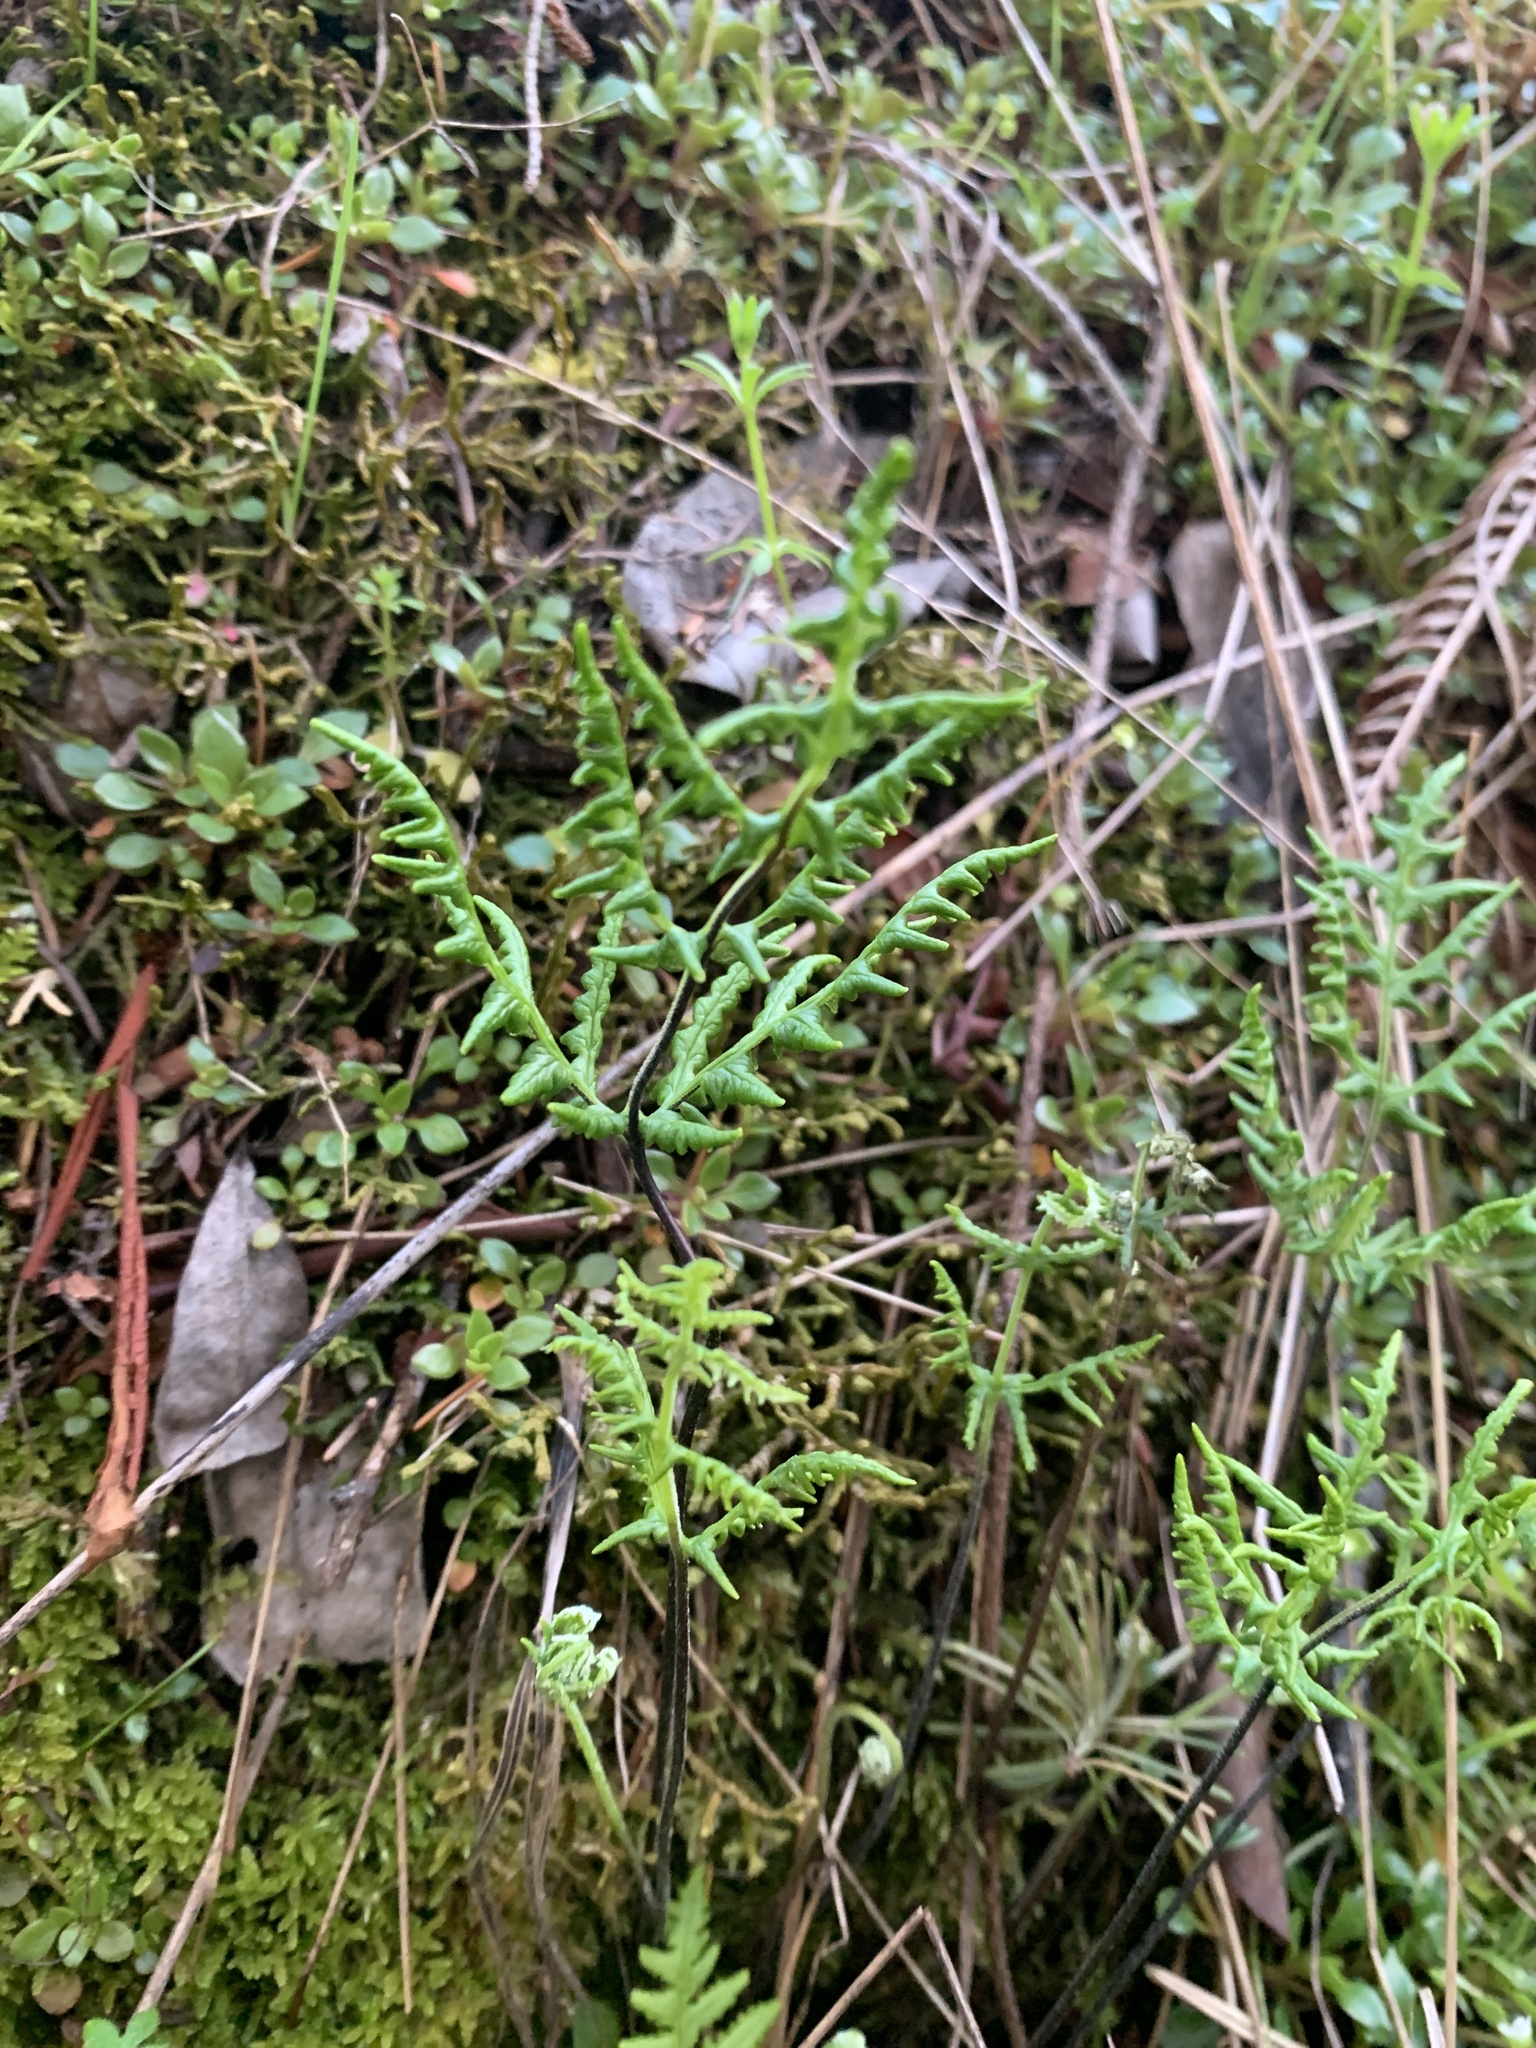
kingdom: Plantae
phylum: Tracheophyta
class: Polypodiopsida
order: Polypodiales
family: Pteridaceae
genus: Pentagramma
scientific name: Pentagramma triangularis
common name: Gold fern
